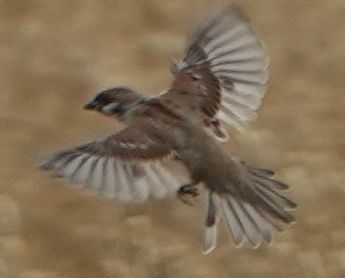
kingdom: Animalia
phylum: Chordata
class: Aves
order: Passeriformes
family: Passeridae
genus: Passer
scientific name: Passer montanus
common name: Eurasian tree sparrow
